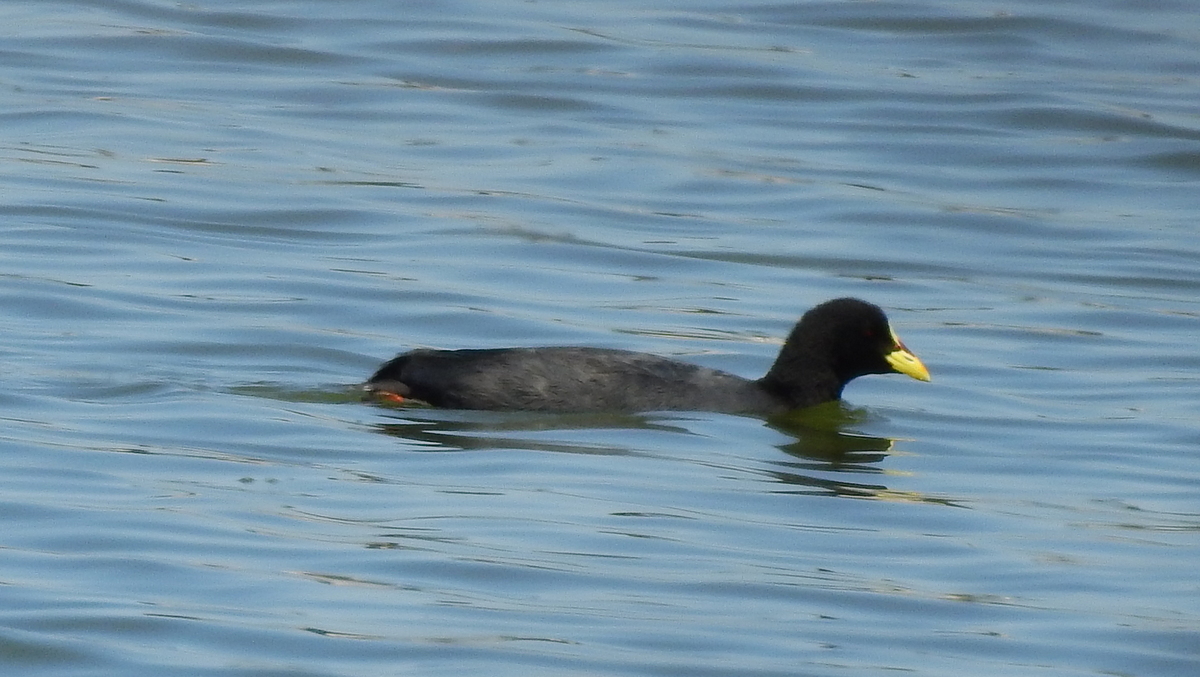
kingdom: Animalia
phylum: Chordata
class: Aves
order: Gruiformes
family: Rallidae
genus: Fulica
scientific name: Fulica armillata
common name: Red-gartered coot
